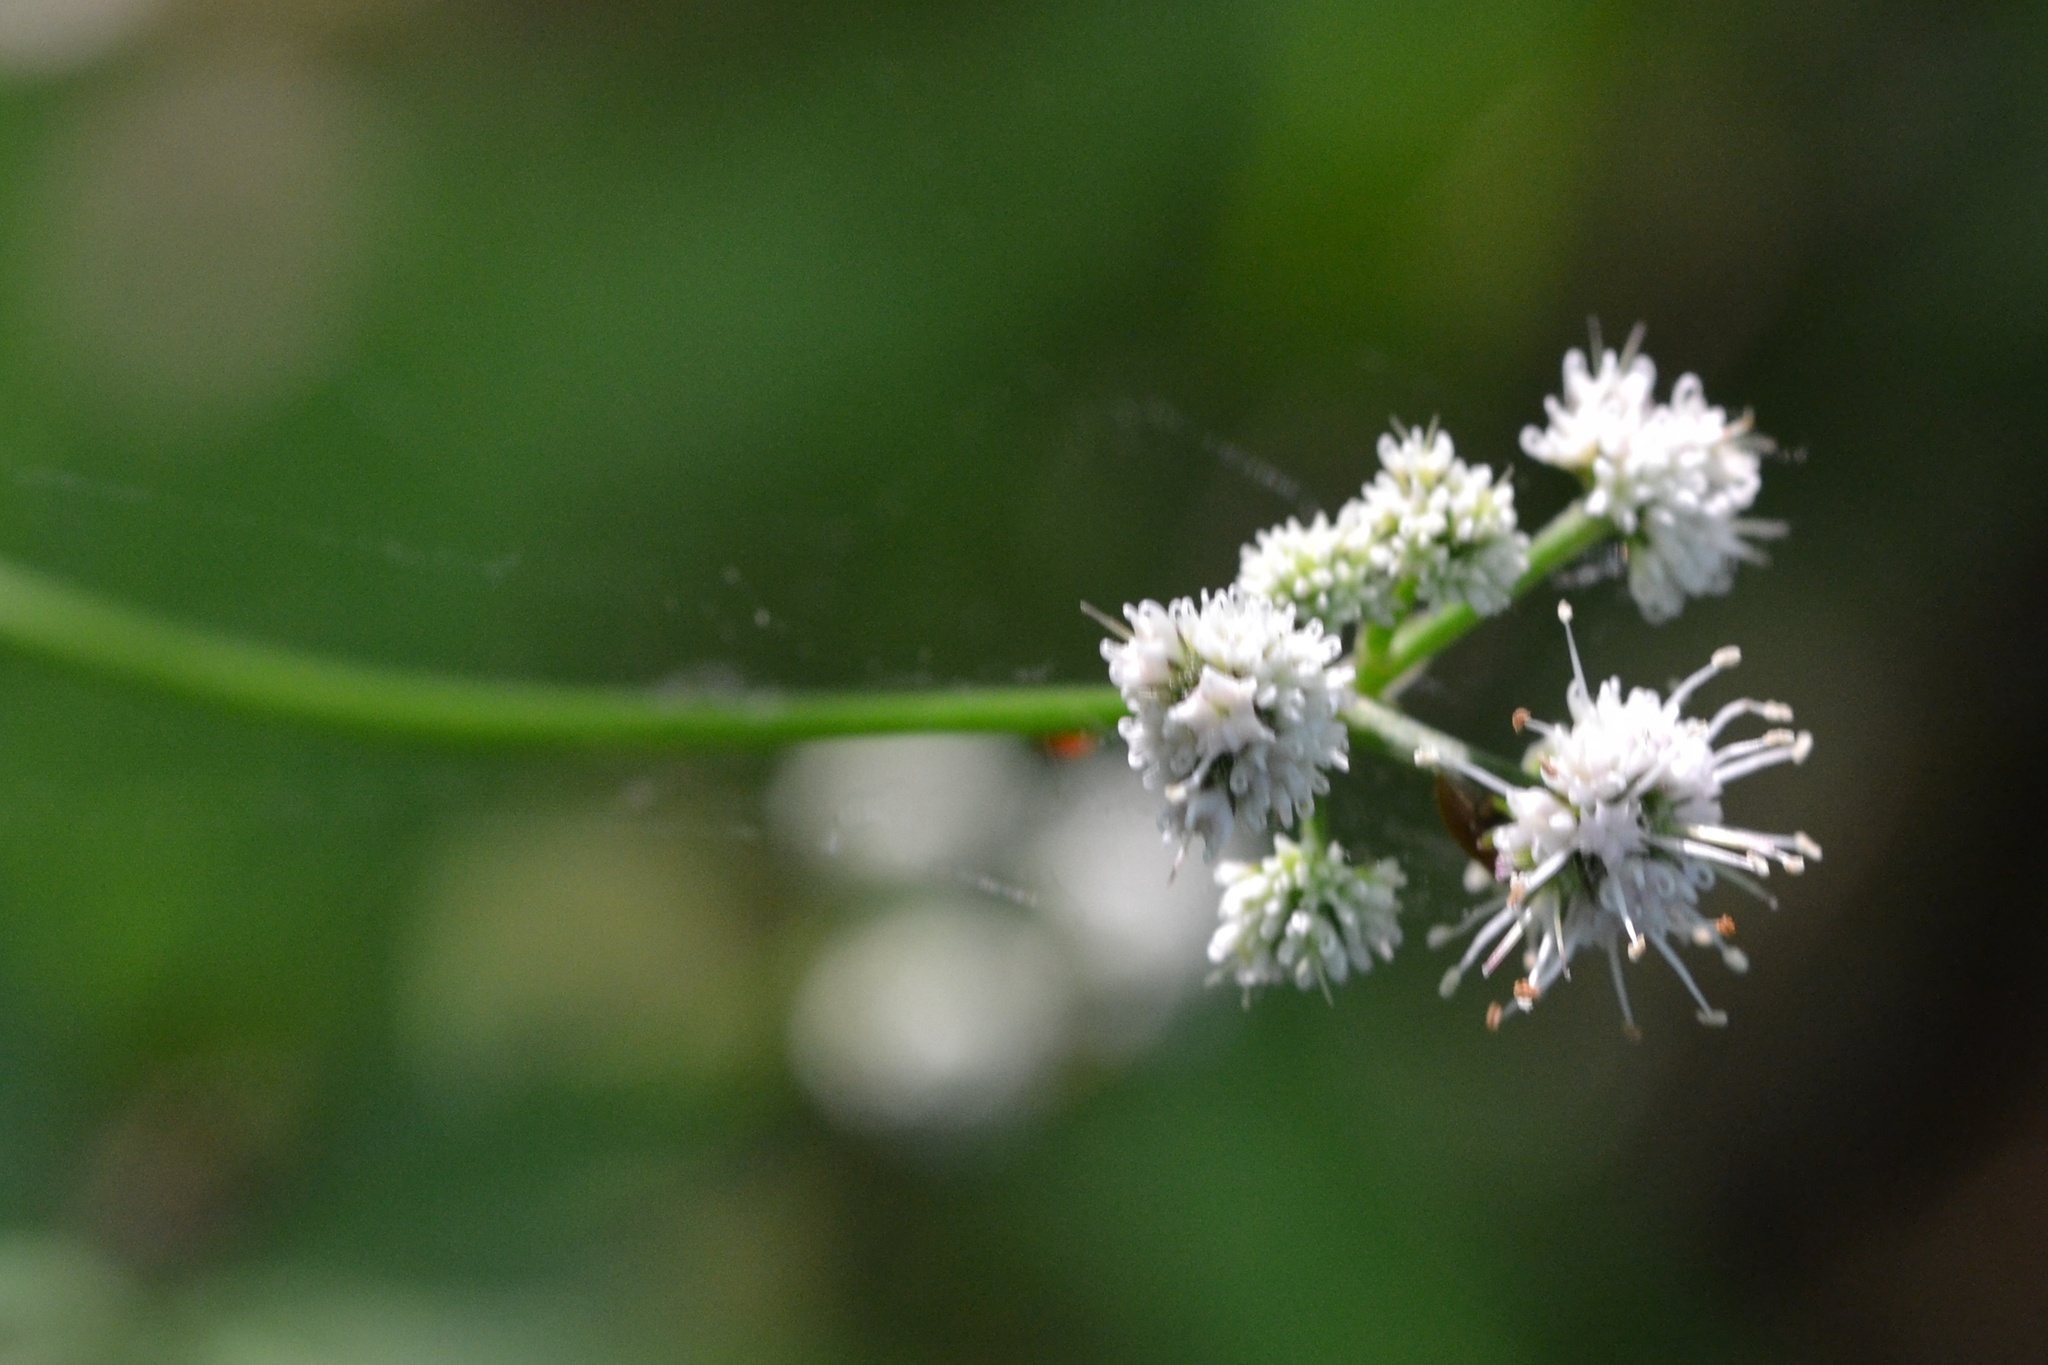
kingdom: Plantae
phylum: Tracheophyta
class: Magnoliopsida
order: Apiales
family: Apiaceae
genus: Sanicula
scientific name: Sanicula europaea
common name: Sanicle
